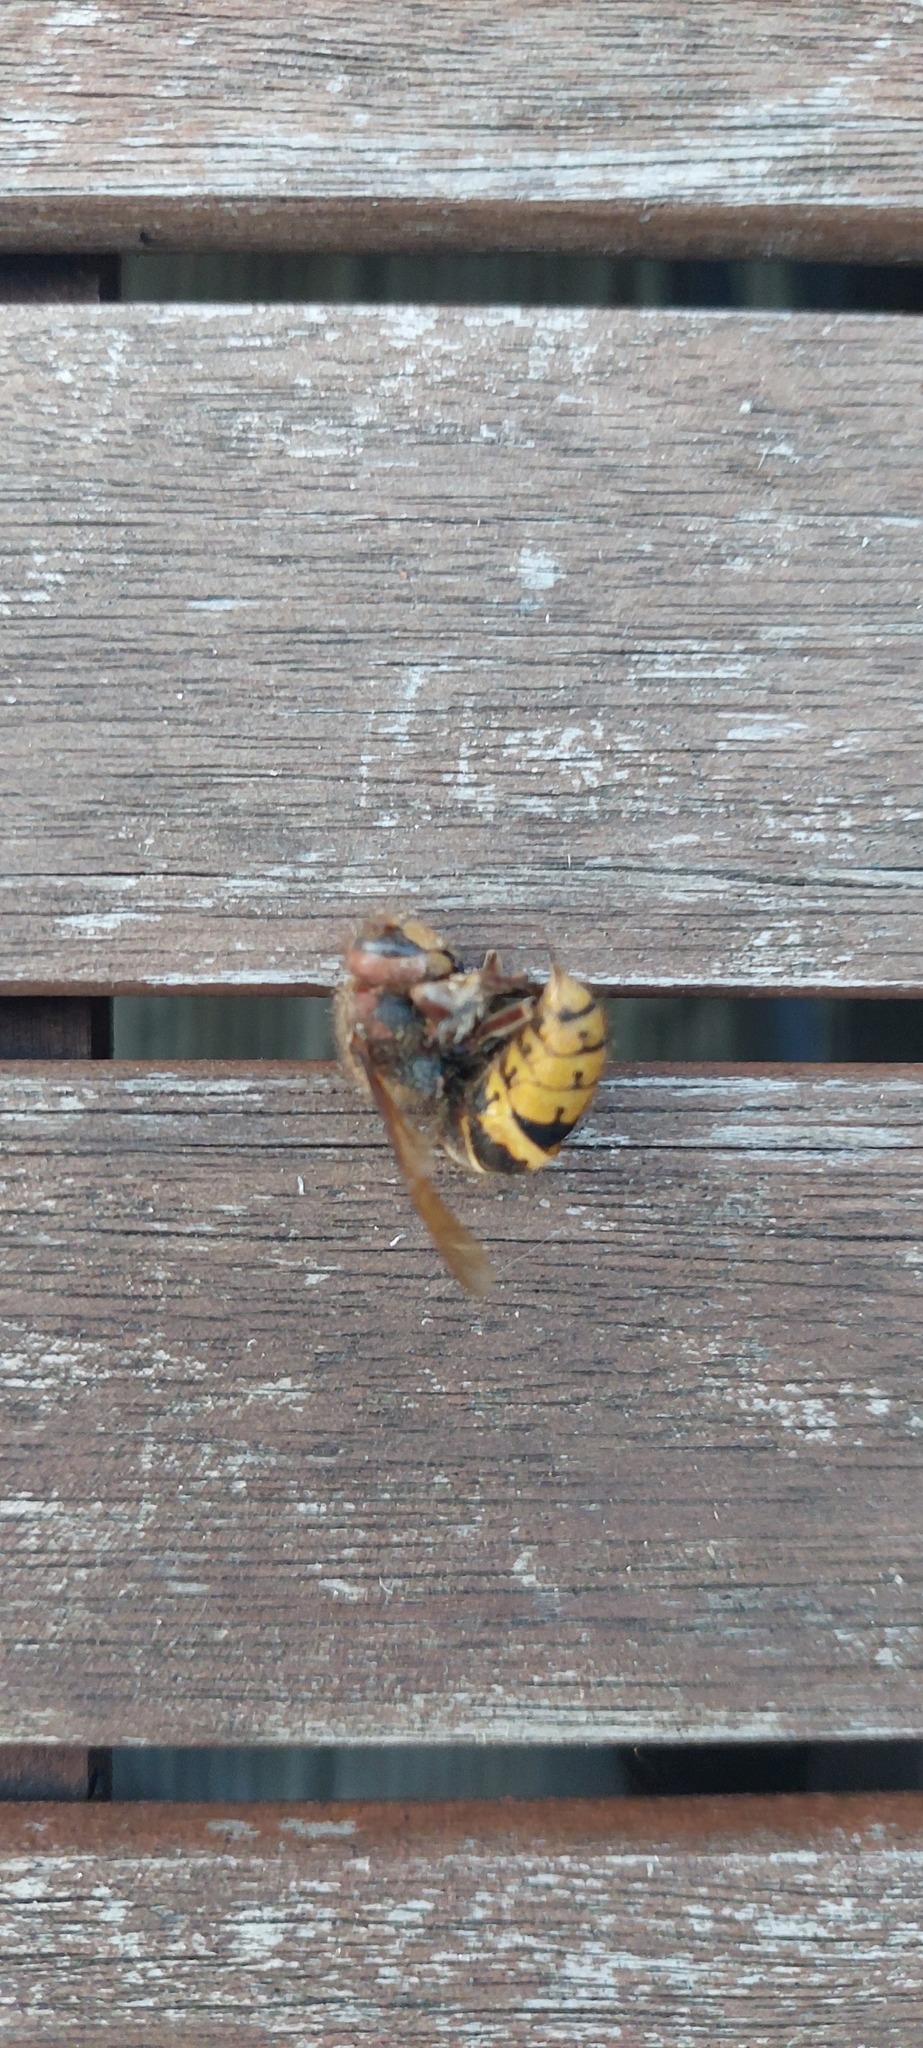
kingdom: Animalia
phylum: Arthropoda
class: Insecta
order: Hymenoptera
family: Vespidae
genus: Vespa
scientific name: Vespa crabro
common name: Hornet
